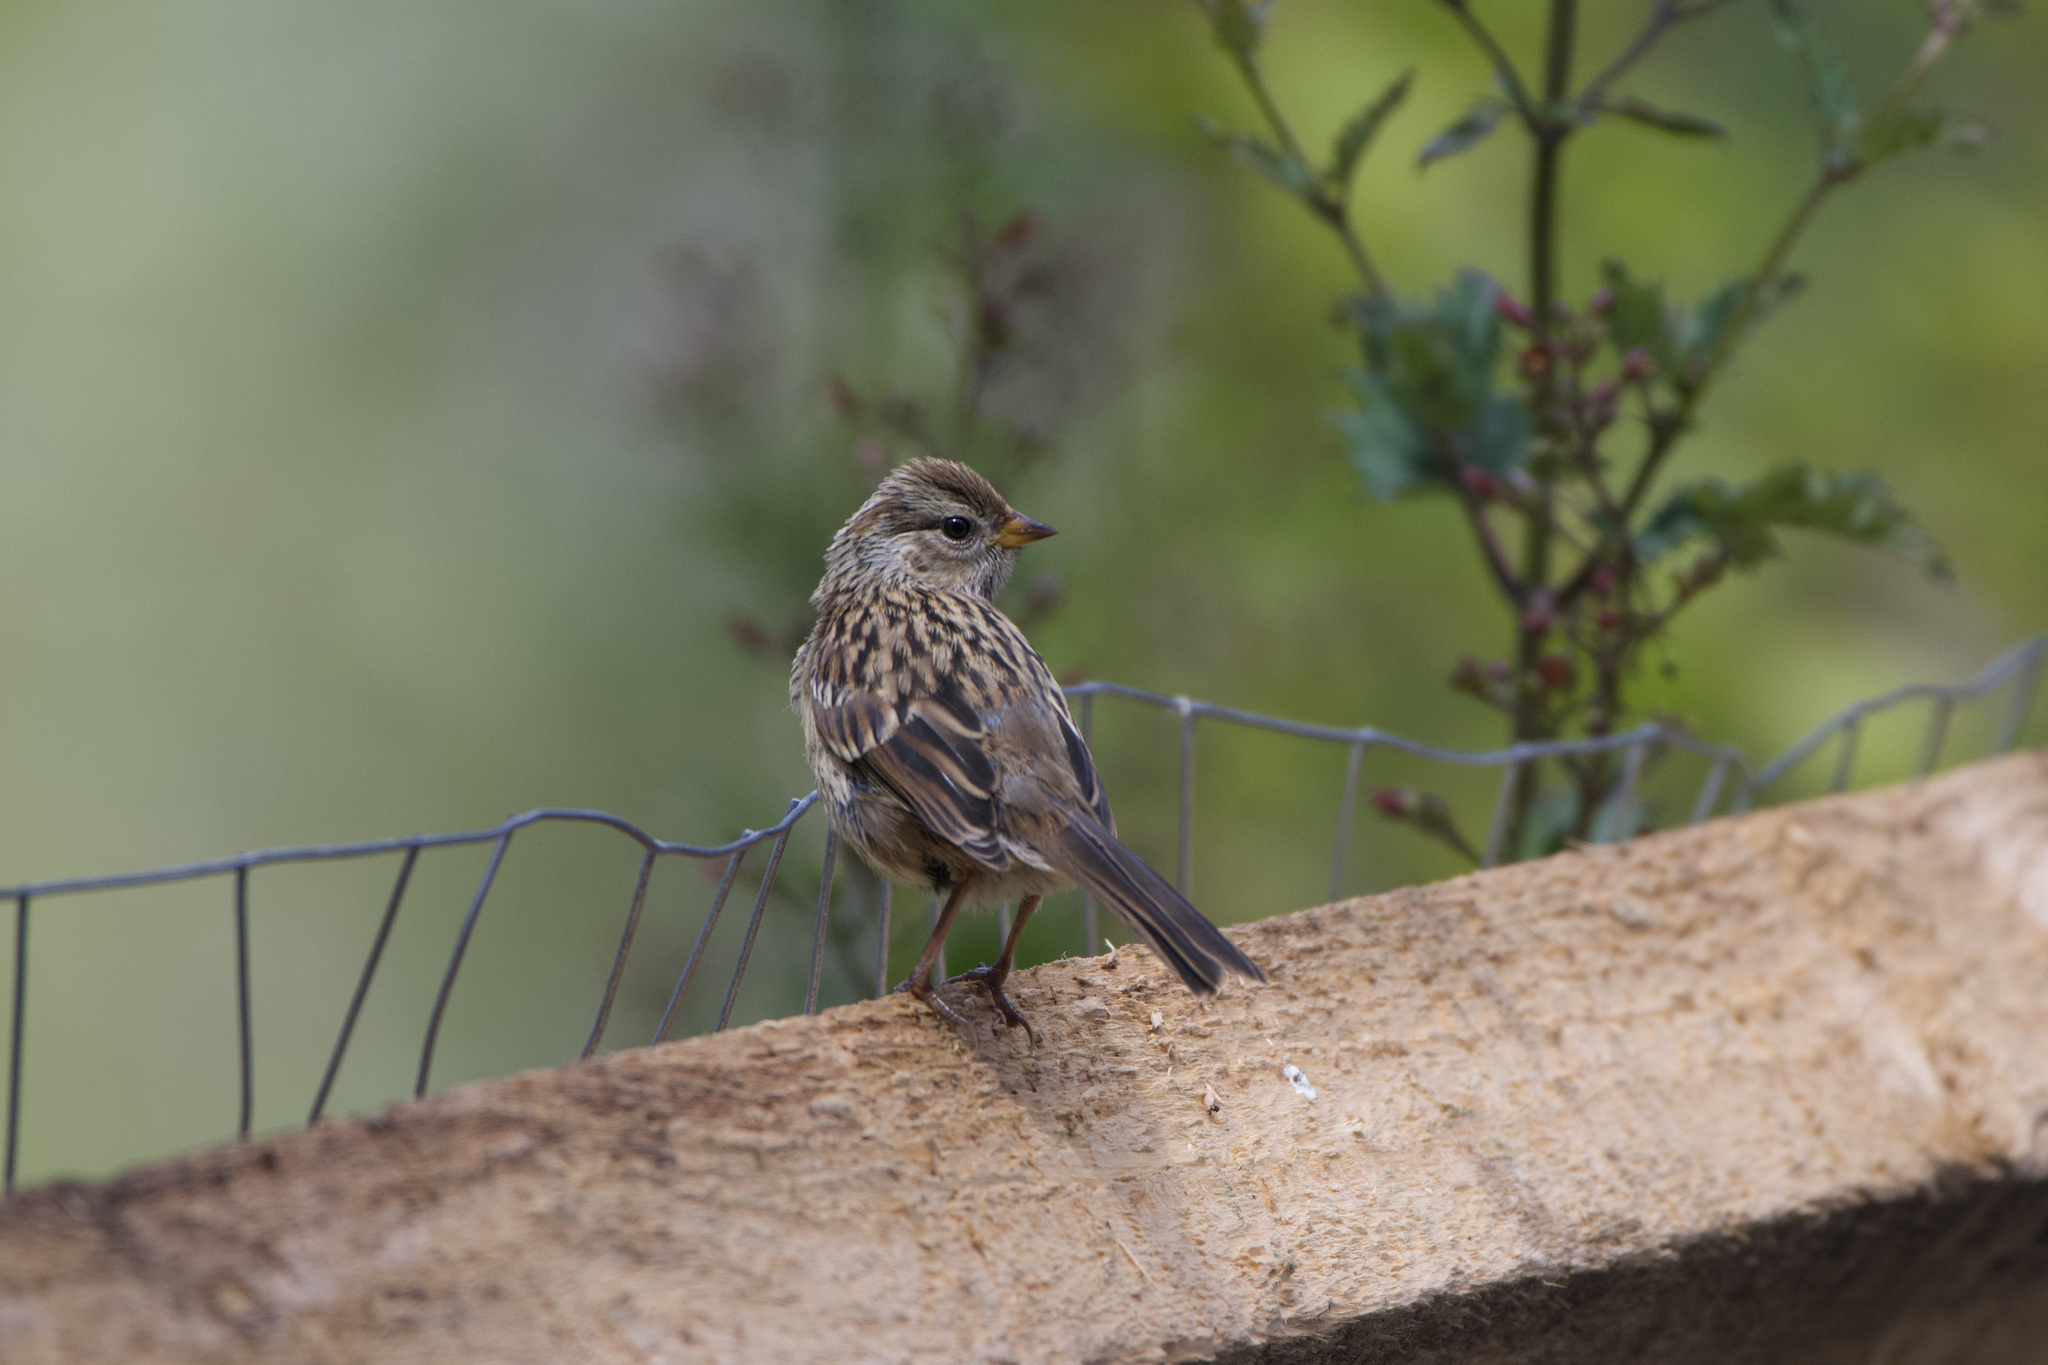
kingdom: Animalia
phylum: Chordata
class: Aves
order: Passeriformes
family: Passerellidae
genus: Zonotrichia
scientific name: Zonotrichia leucophrys
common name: White-crowned sparrow
